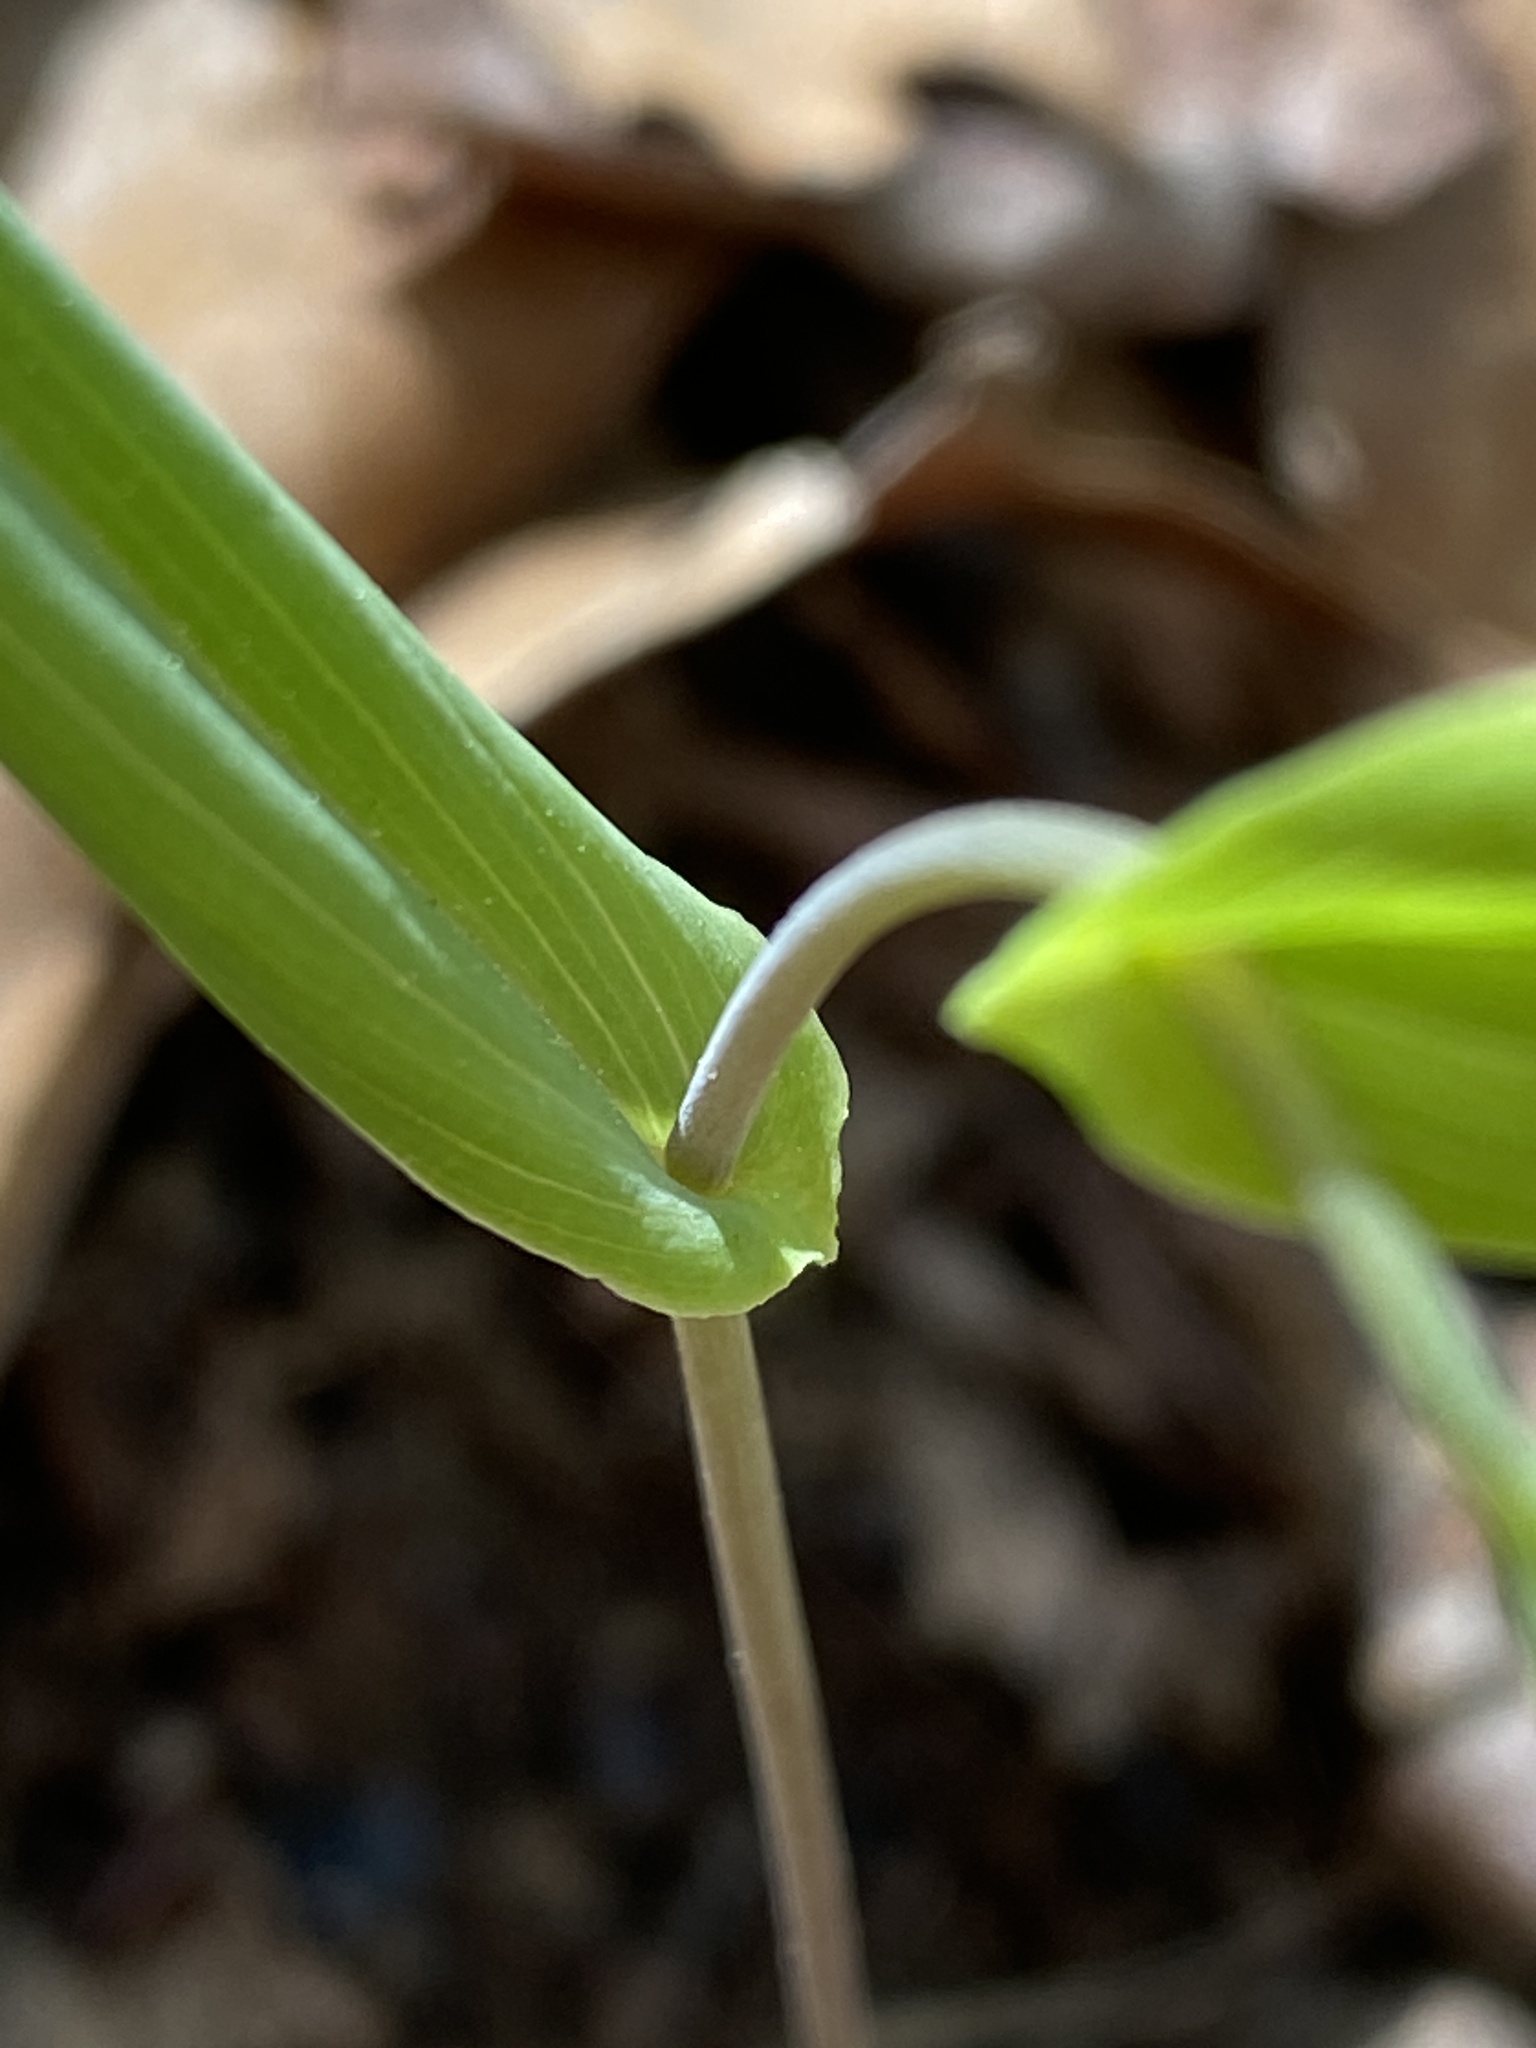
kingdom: Plantae
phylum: Tracheophyta
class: Liliopsida
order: Liliales
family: Colchicaceae
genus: Uvularia
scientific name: Uvularia perfoliata
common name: Perfoliate bellwort
